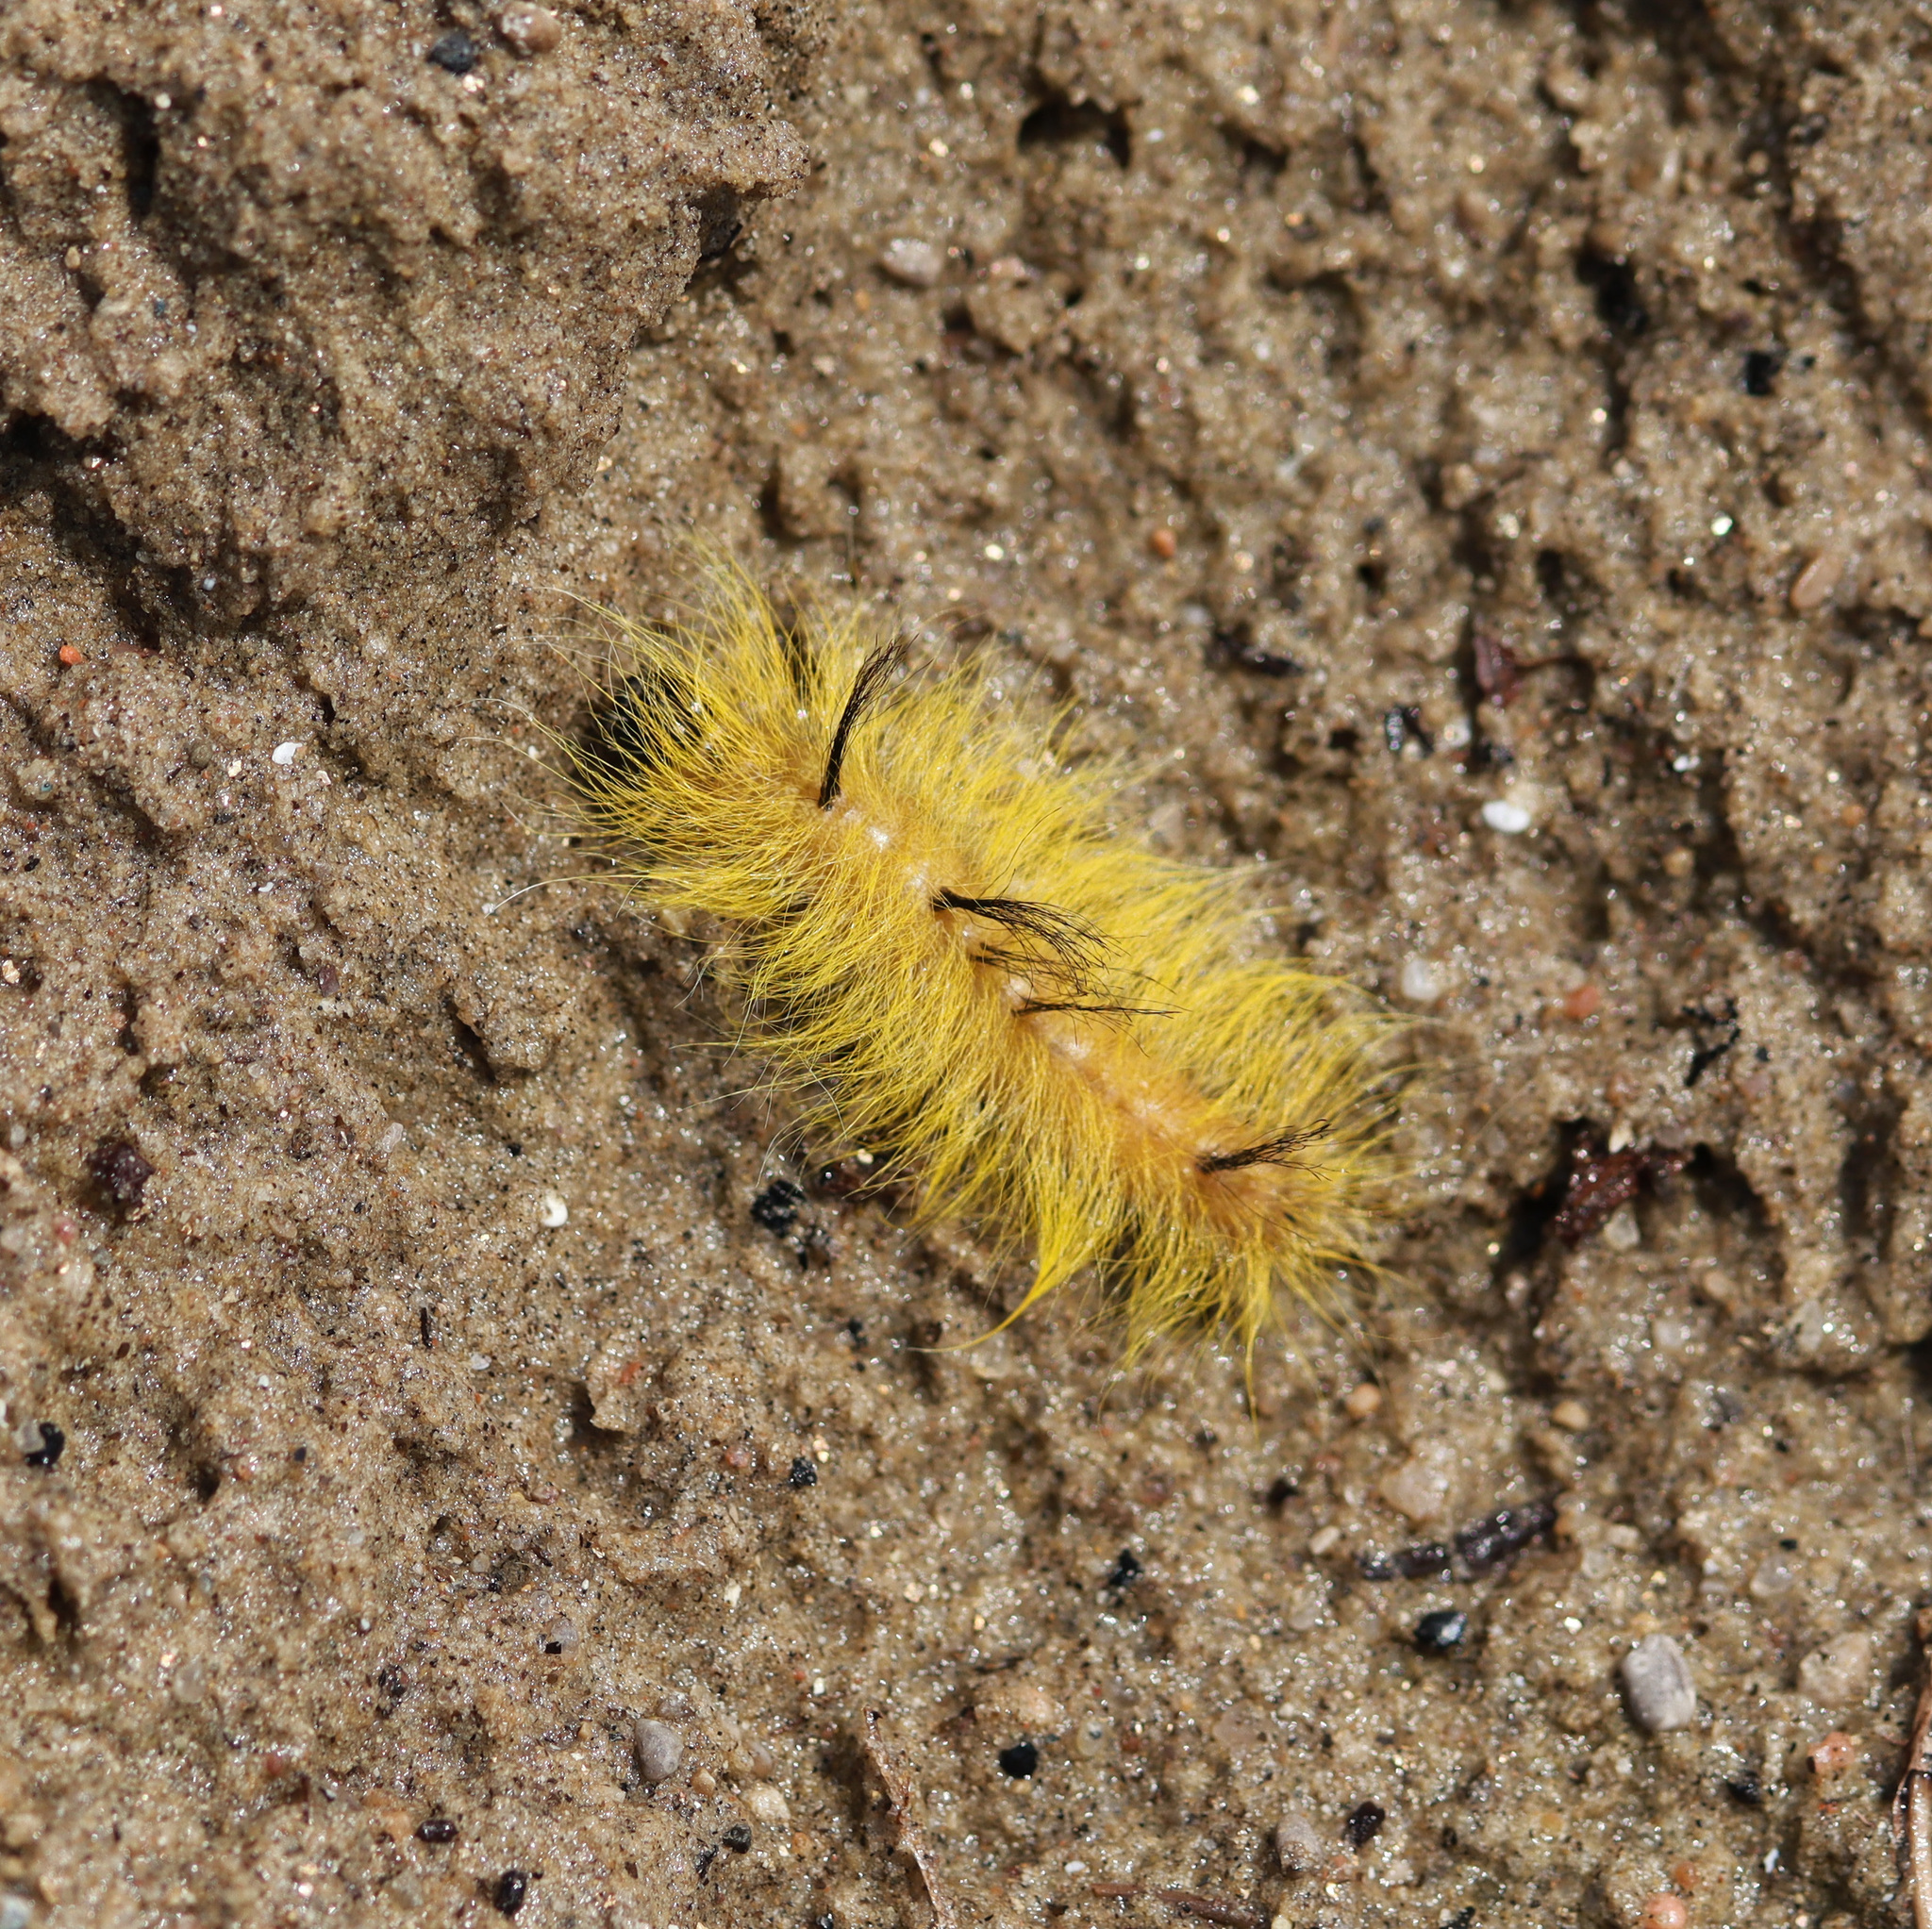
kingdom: Animalia
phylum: Arthropoda
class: Insecta
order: Lepidoptera
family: Noctuidae
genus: Acronicta
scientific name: Acronicta lepusculina
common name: Cottonwood dagger
